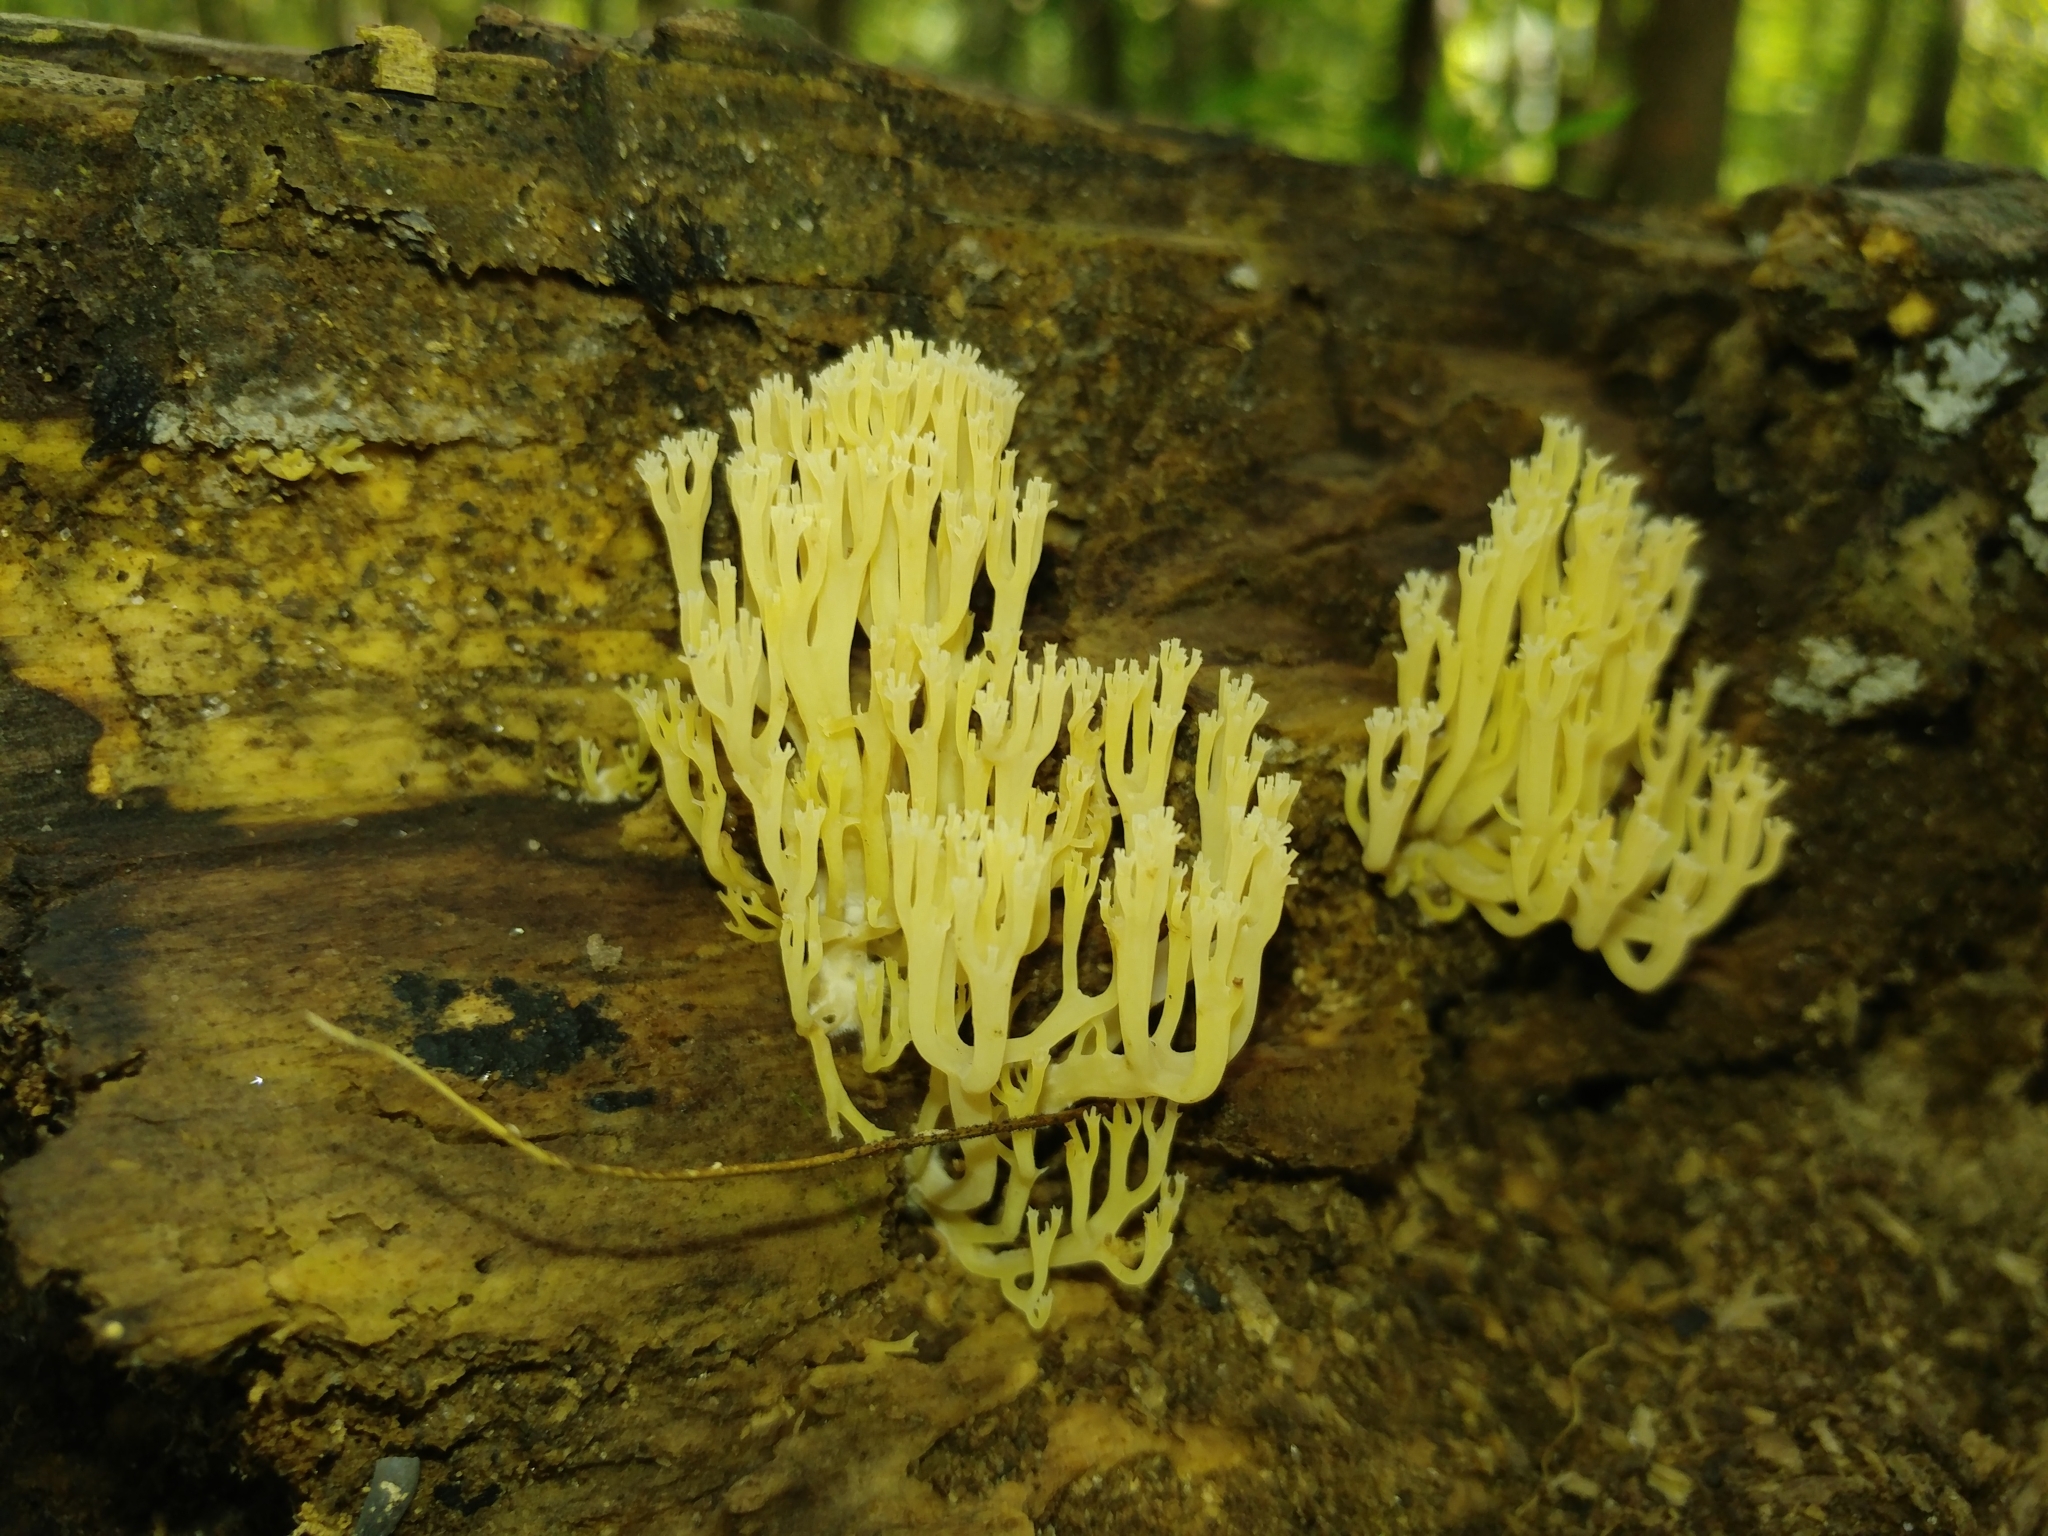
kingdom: Fungi
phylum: Basidiomycota
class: Agaricomycetes
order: Russulales
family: Auriscalpiaceae
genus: Artomyces
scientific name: Artomyces pyxidatus
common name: Crown-tipped coral fungus
